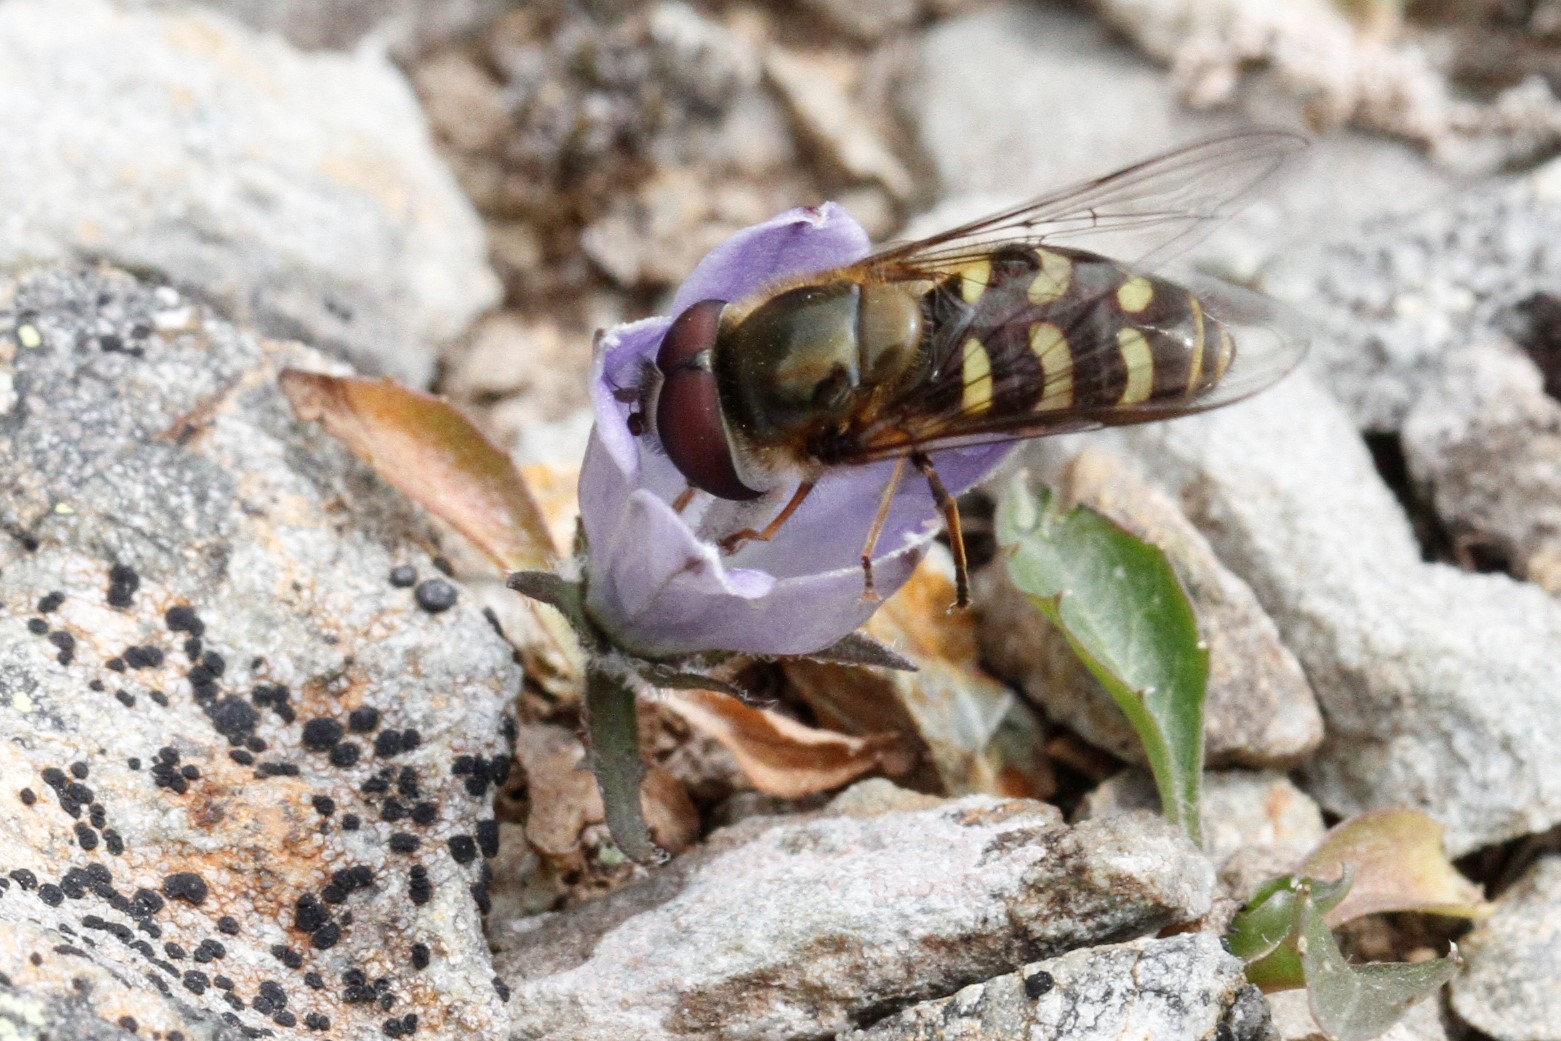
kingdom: Animalia
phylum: Arthropoda
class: Insecta
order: Diptera
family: Syrphidae
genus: Lapposyrphus
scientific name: Lapposyrphus lapponicus
